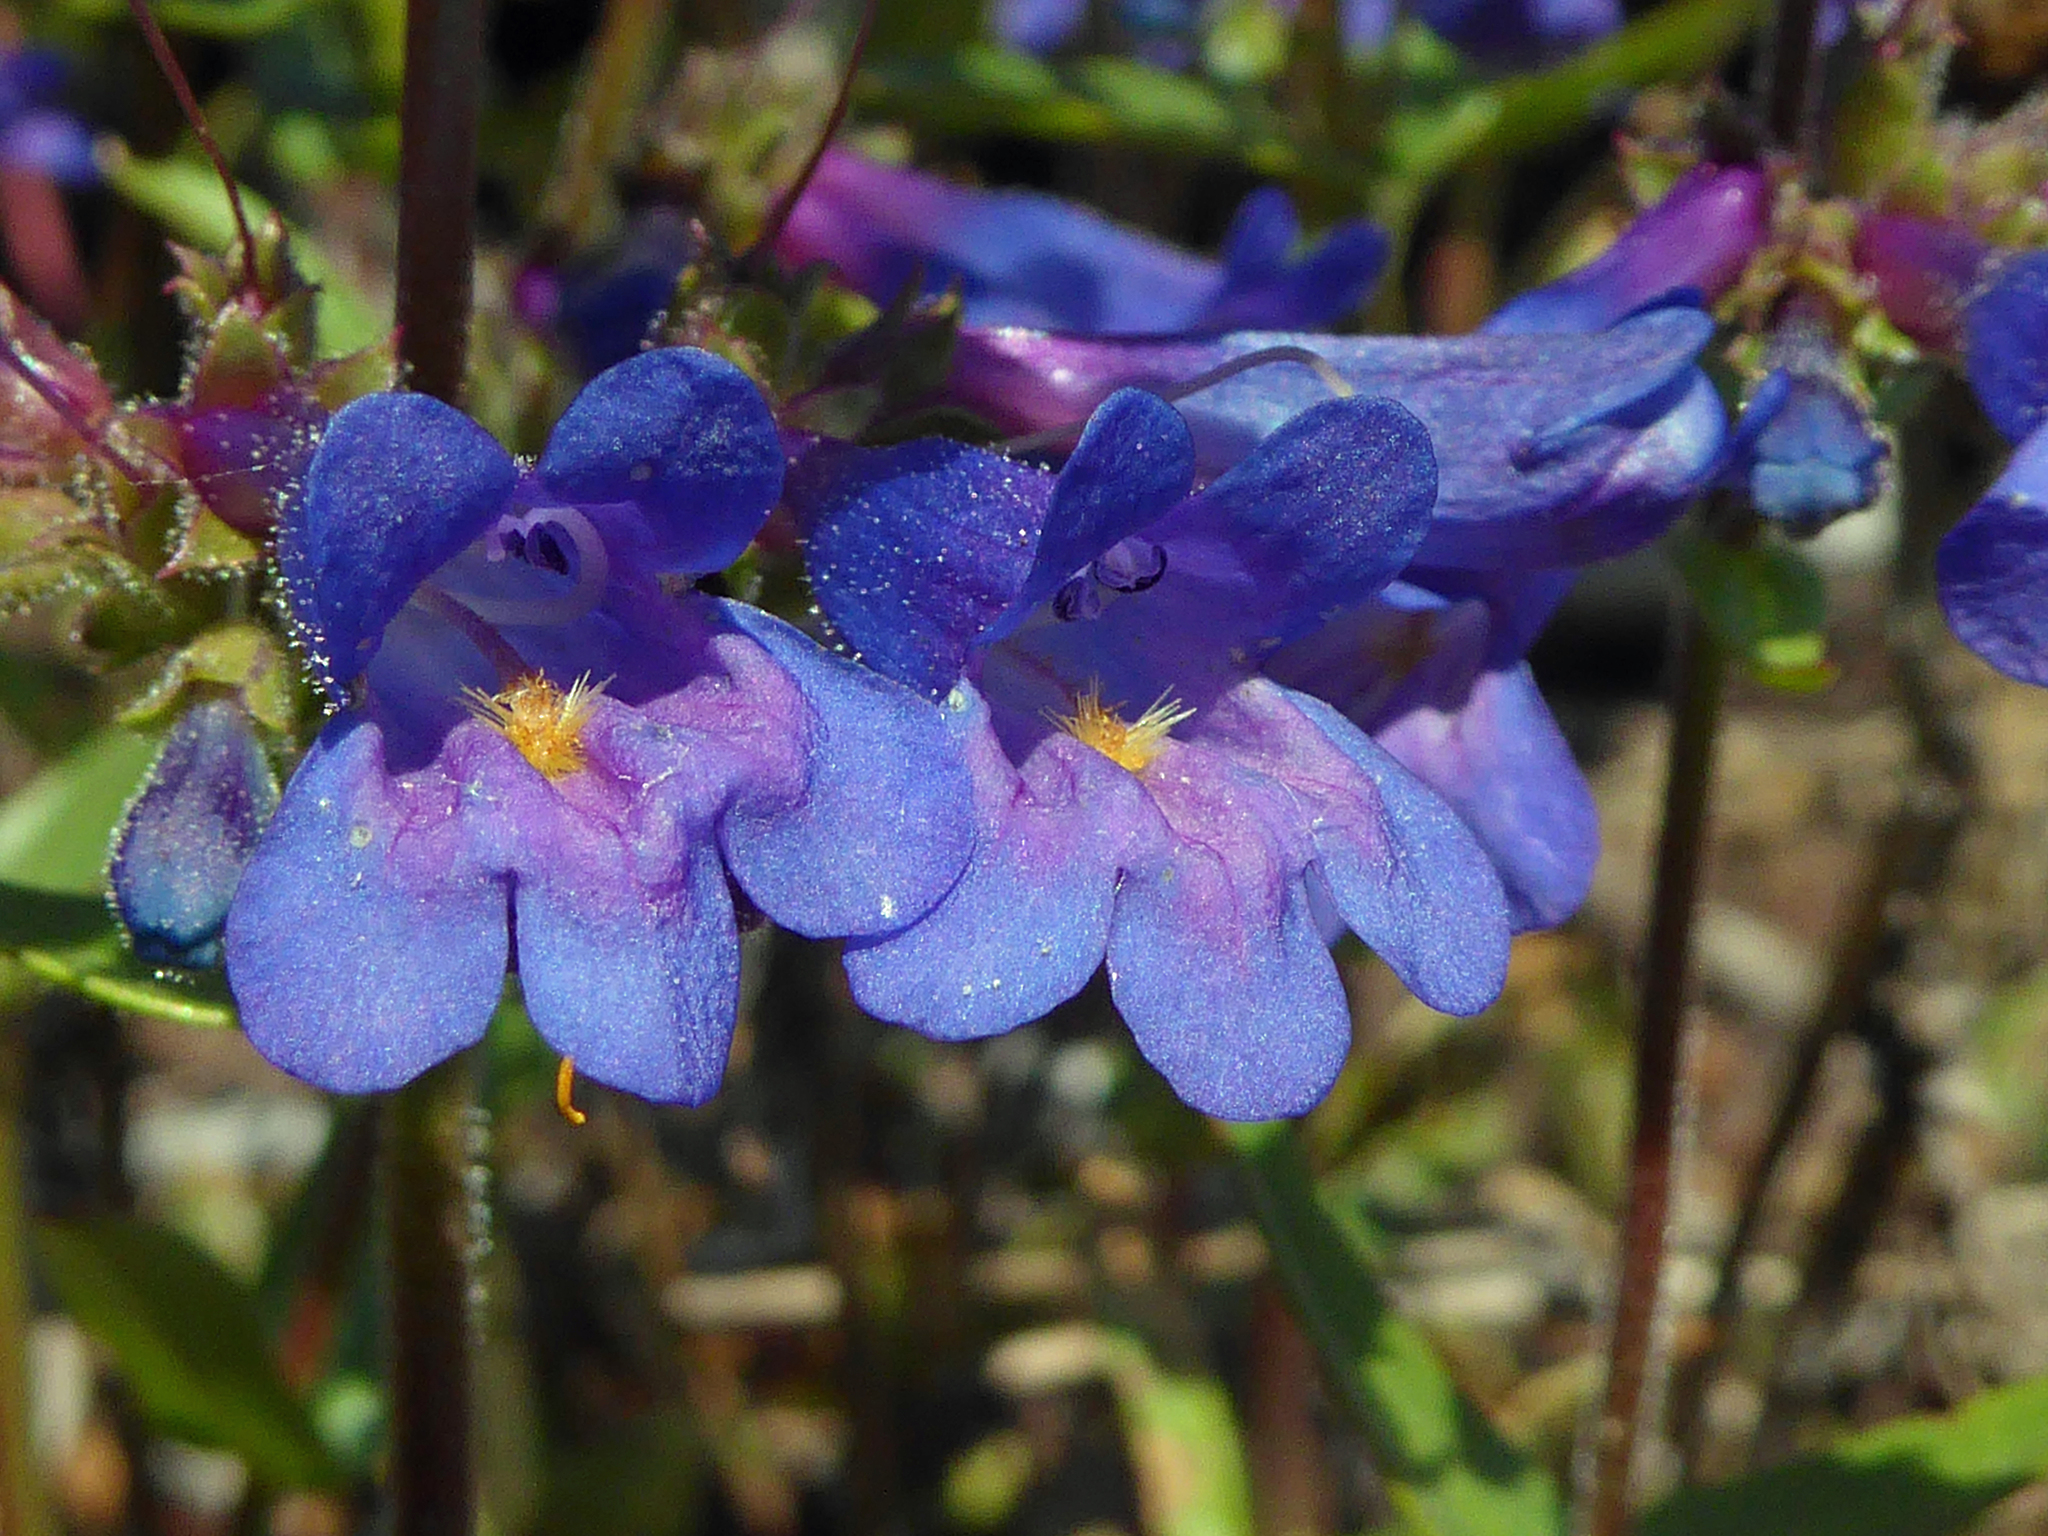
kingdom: Plantae
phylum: Tracheophyta
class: Magnoliopsida
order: Lamiales
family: Plantaginaceae
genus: Penstemon
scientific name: Penstemon albertinus
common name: Alberta beardtongue
